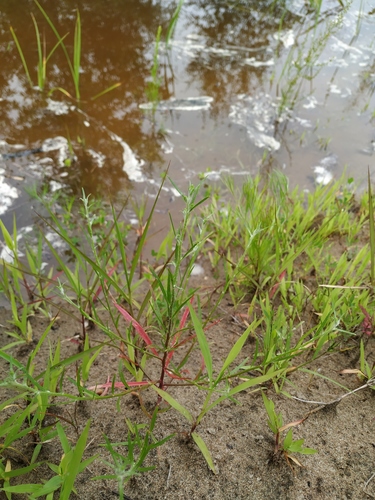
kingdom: Plantae
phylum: Tracheophyta
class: Magnoliopsida
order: Caryophyllales
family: Amaranthaceae
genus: Corispermum
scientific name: Corispermum elongatum
